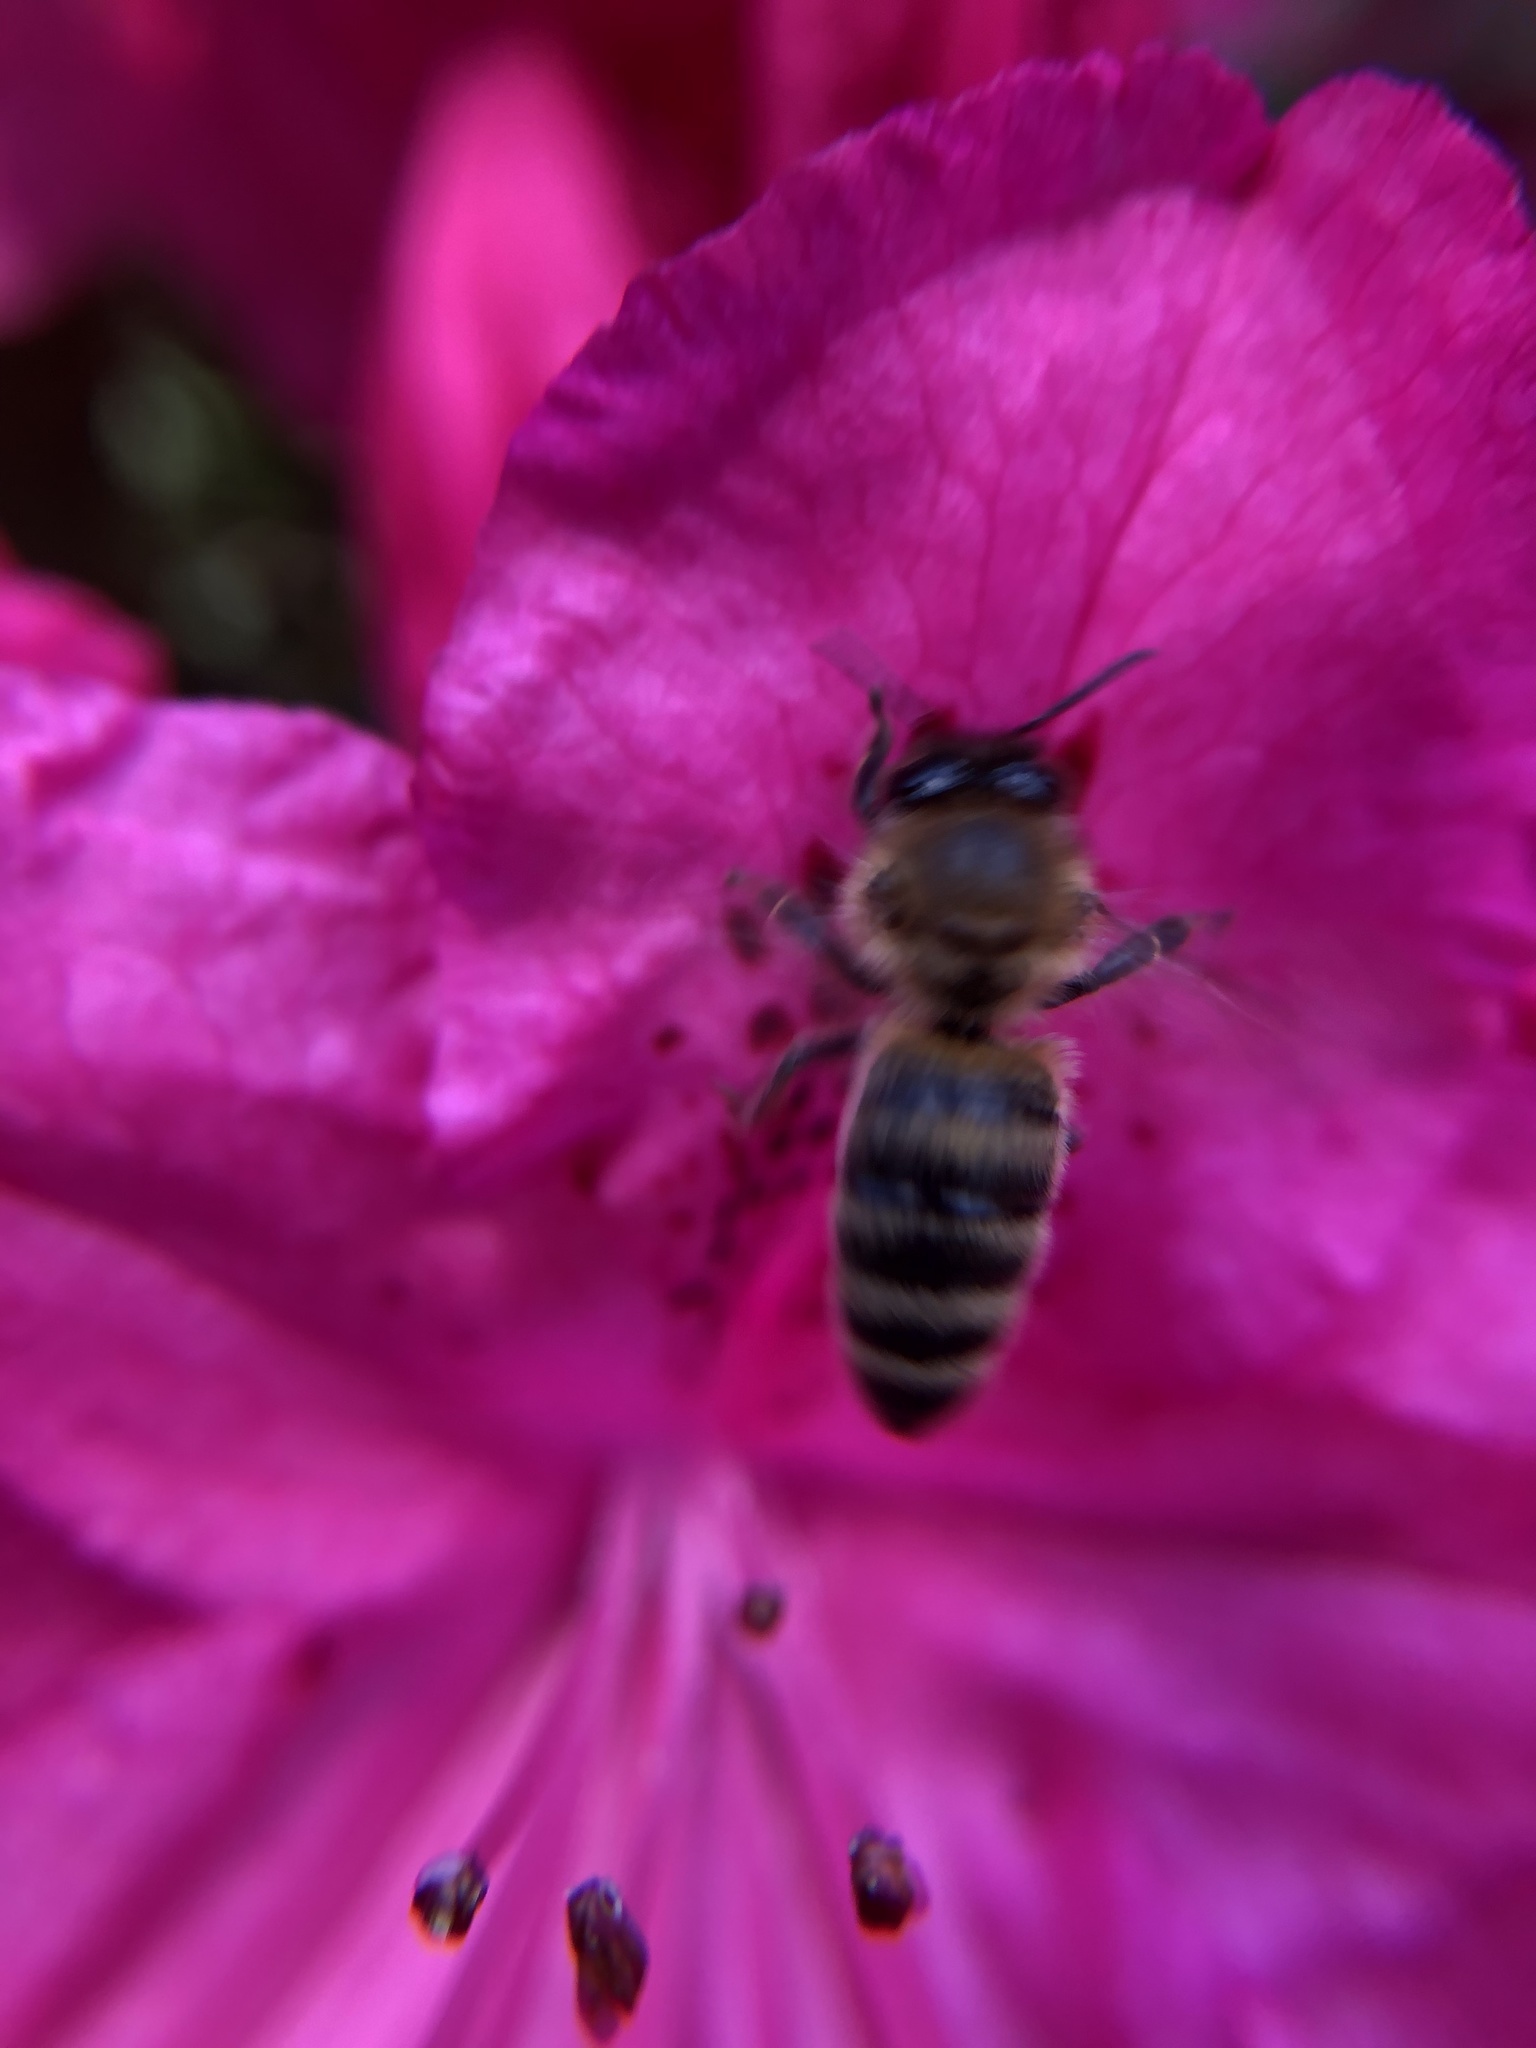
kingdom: Animalia
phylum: Arthropoda
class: Insecta
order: Hymenoptera
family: Apidae
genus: Apis
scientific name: Apis mellifera
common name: Honey bee
